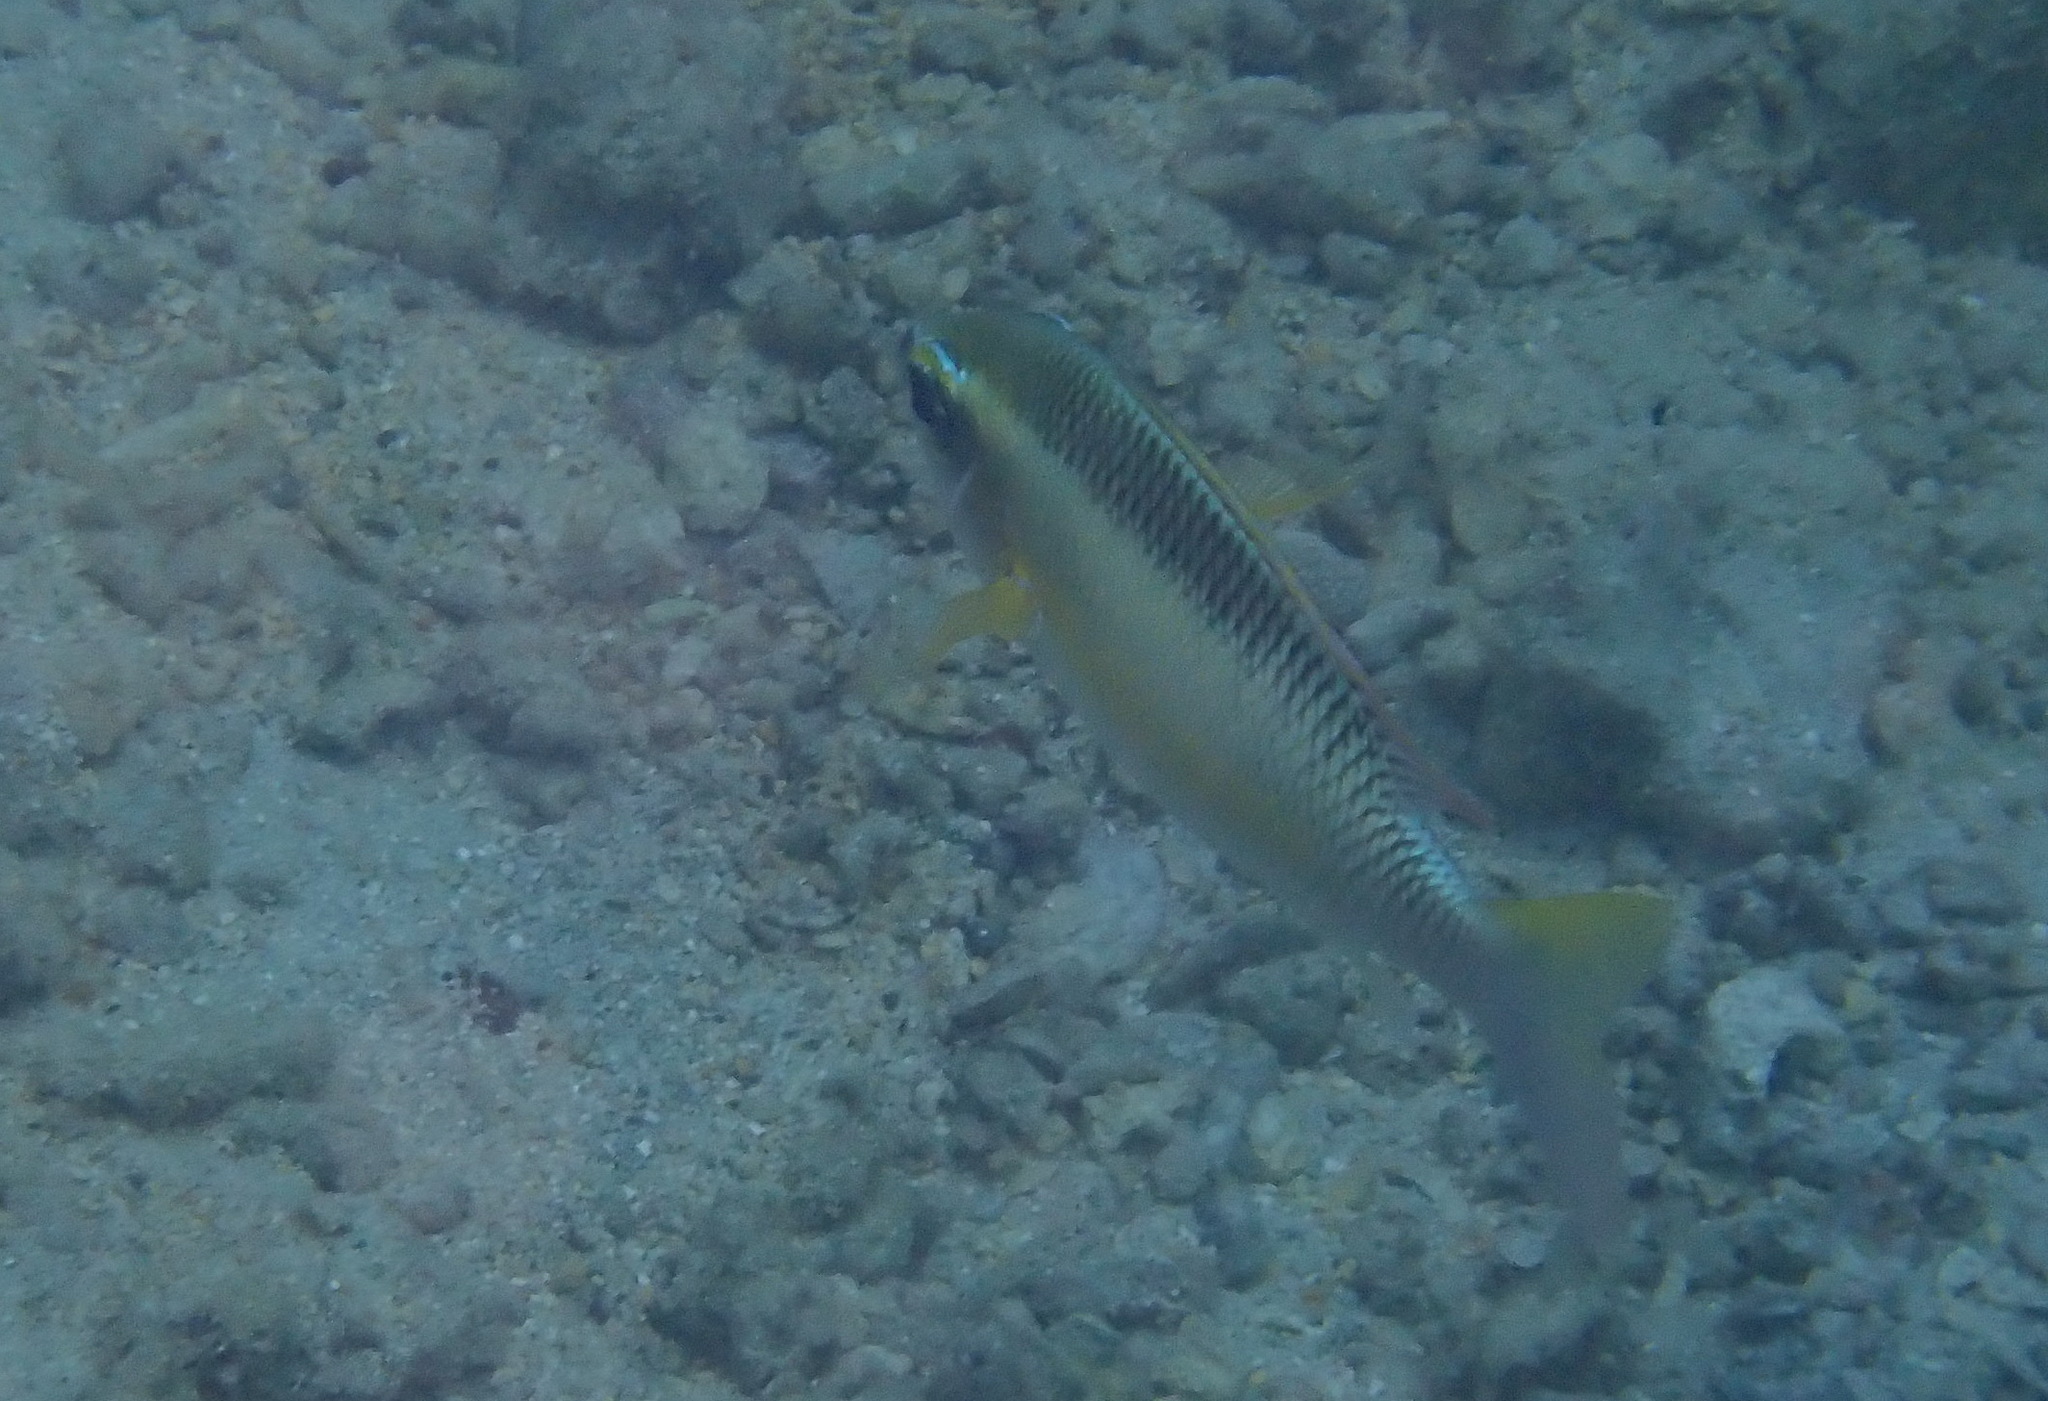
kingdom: Animalia
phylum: Chordata
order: Perciformes
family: Nemipteridae
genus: Scolopsis
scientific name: Scolopsis margaritifera
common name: Pearly monocle bream
